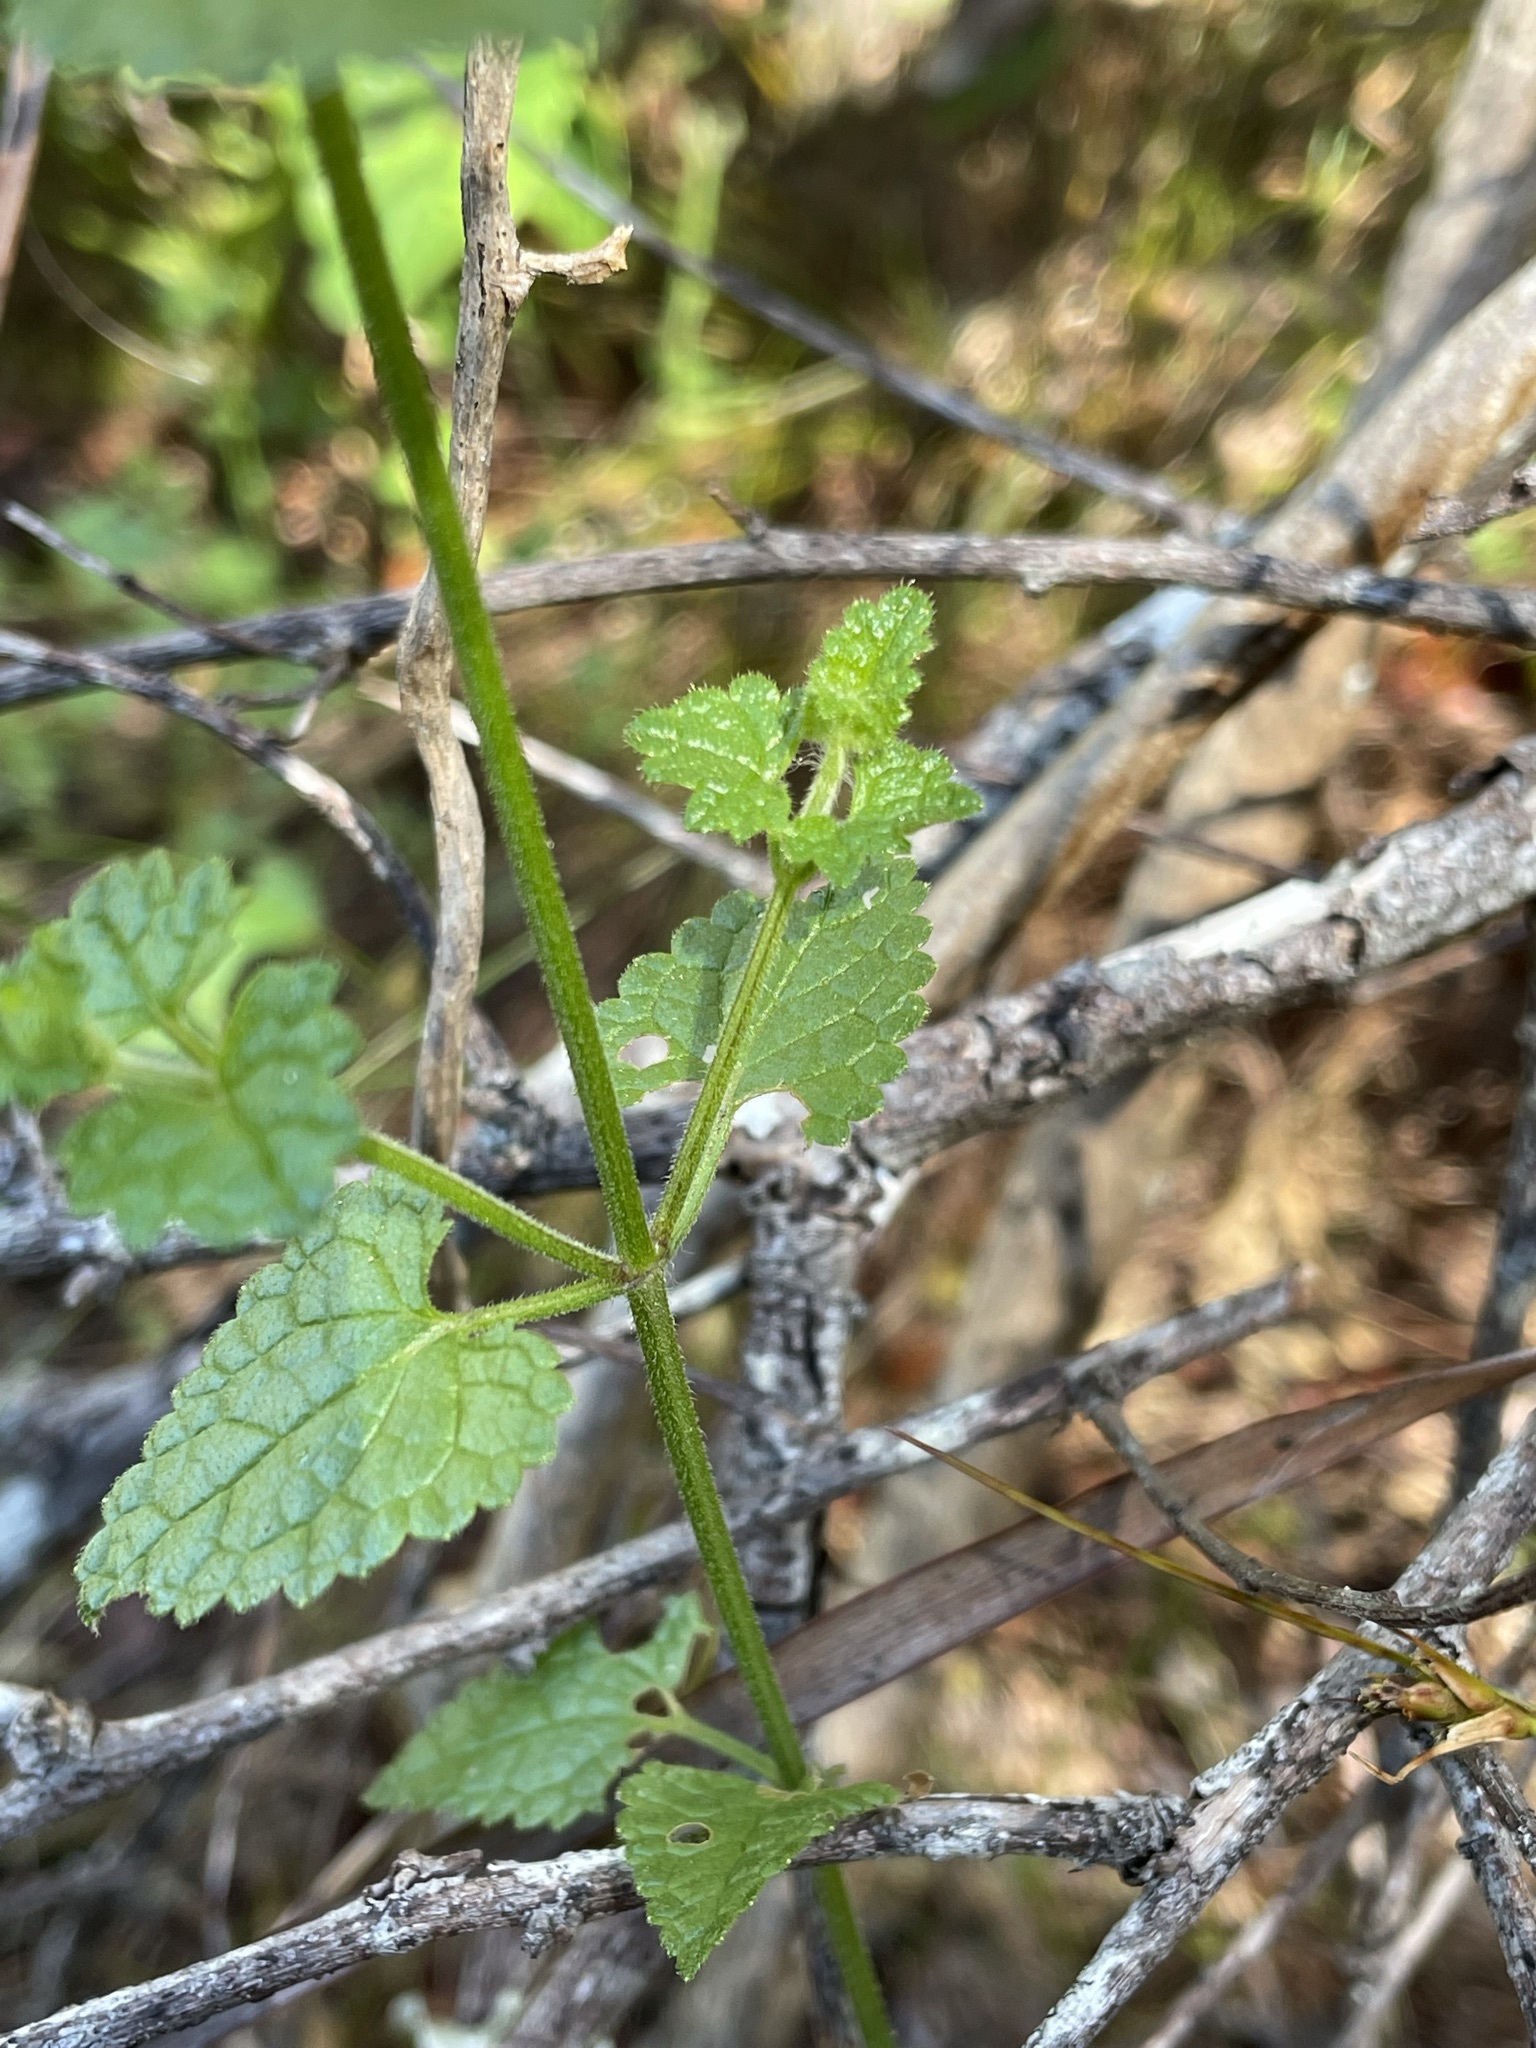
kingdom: Plantae
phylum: Tracheophyta
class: Magnoliopsida
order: Lamiales
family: Lamiaceae
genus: Stachys
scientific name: Stachys aethiopica
